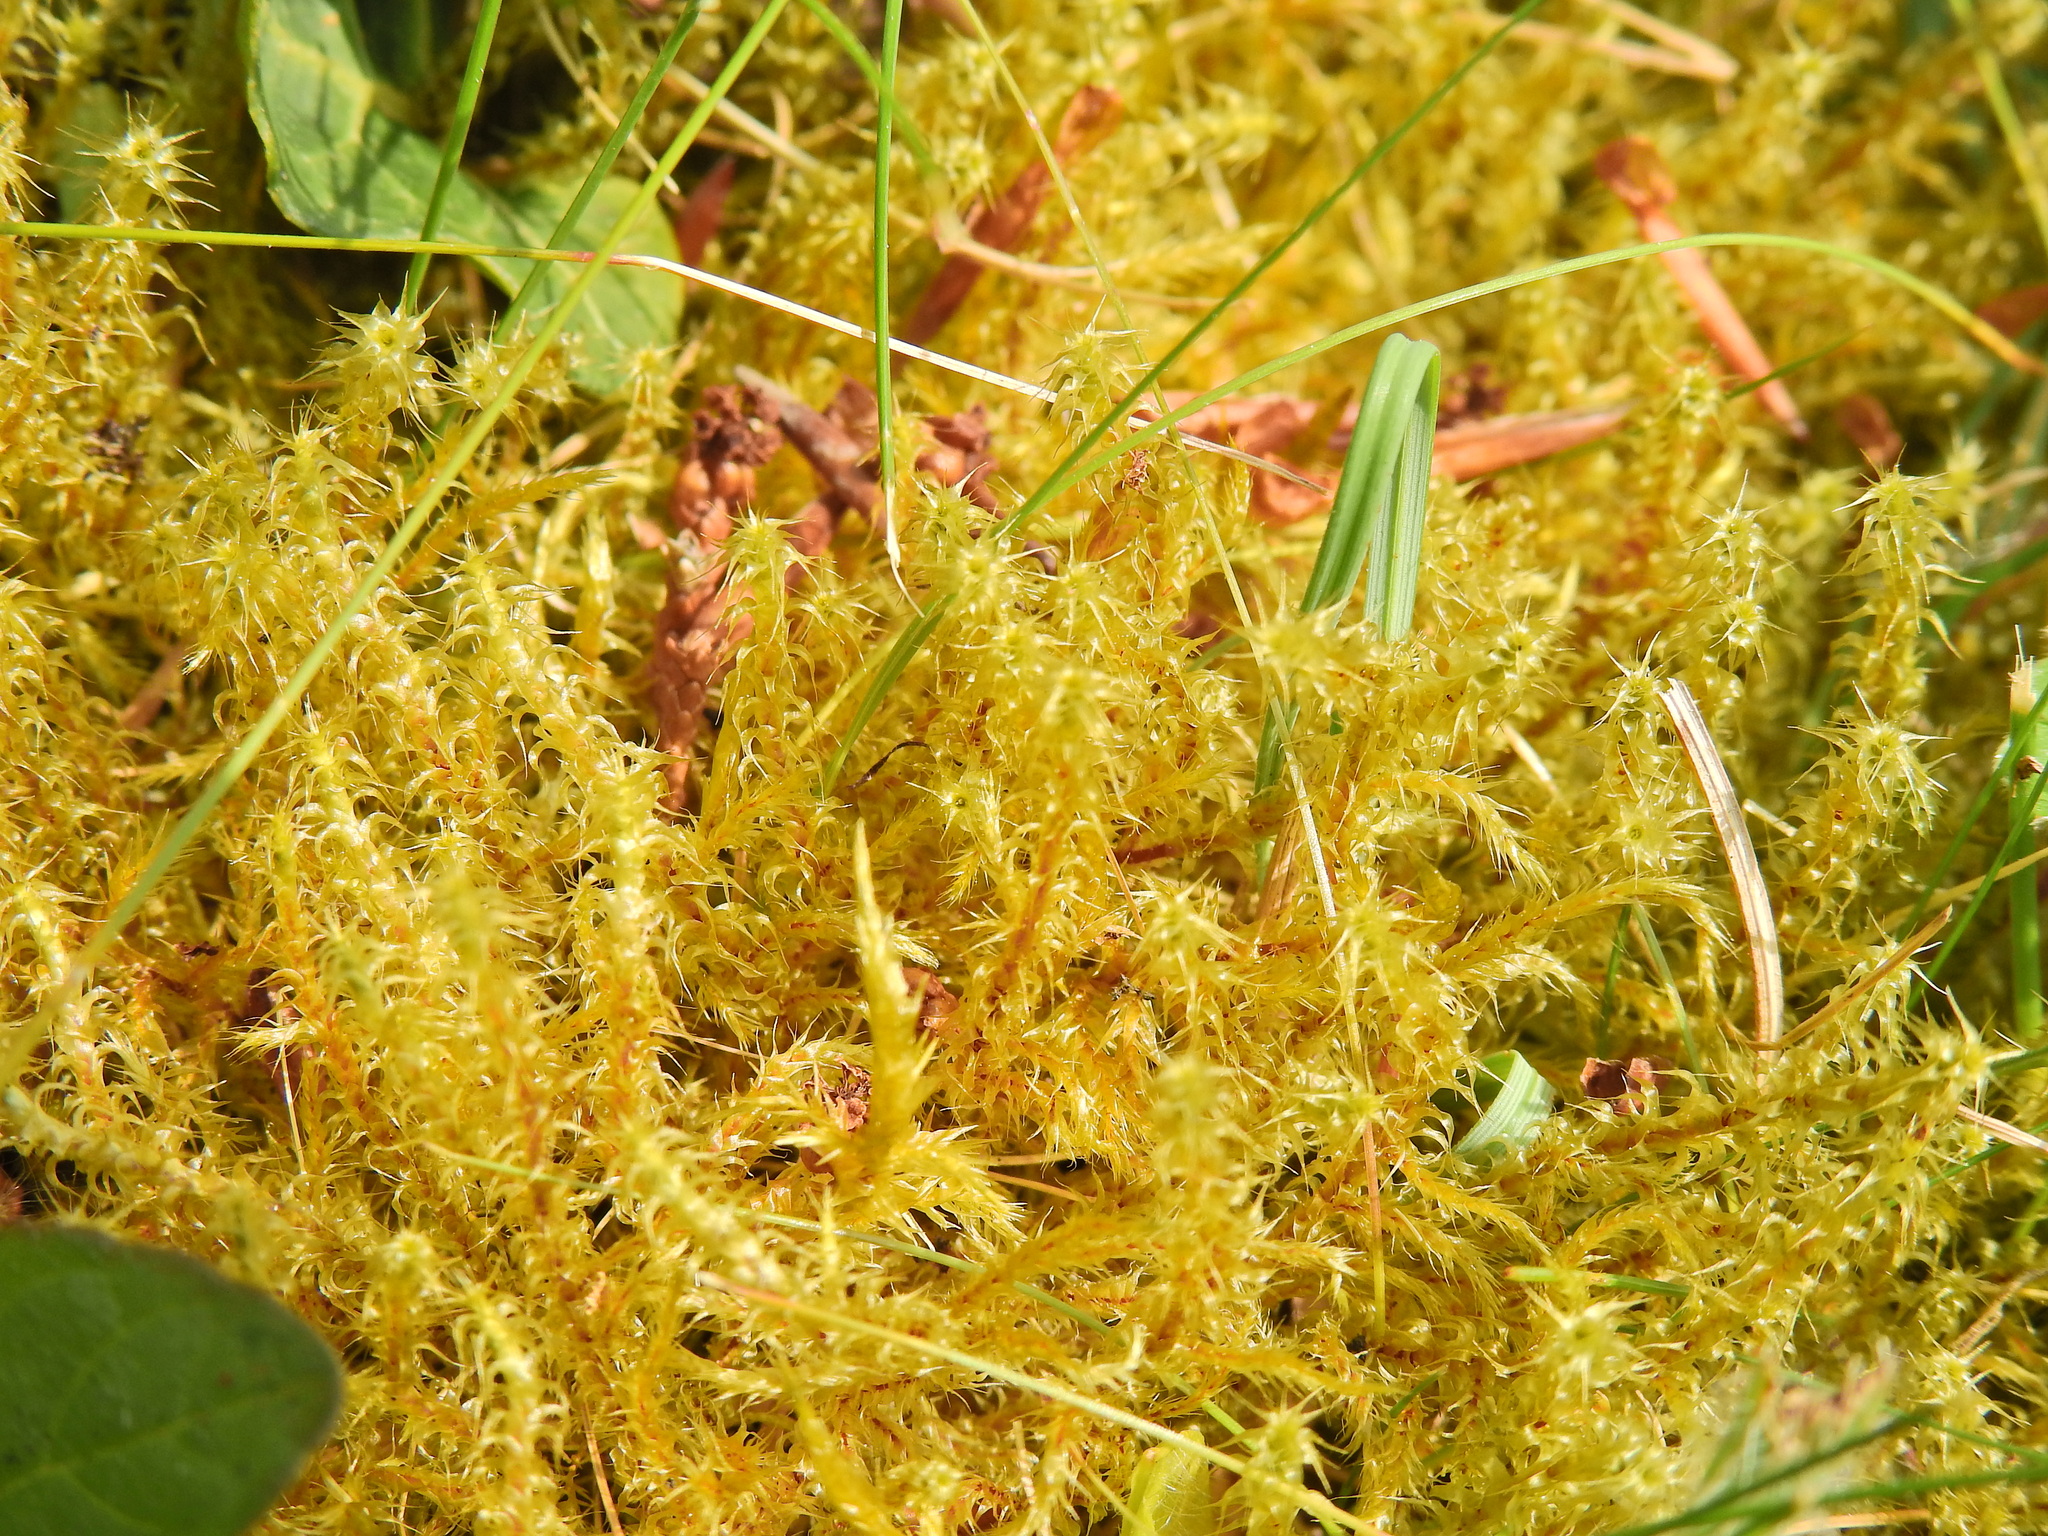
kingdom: Plantae
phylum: Bryophyta
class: Bryopsida
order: Hypnales
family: Hylocomiaceae
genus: Rhytidiadelphus
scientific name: Rhytidiadelphus squarrosus
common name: Springy turf-moss
